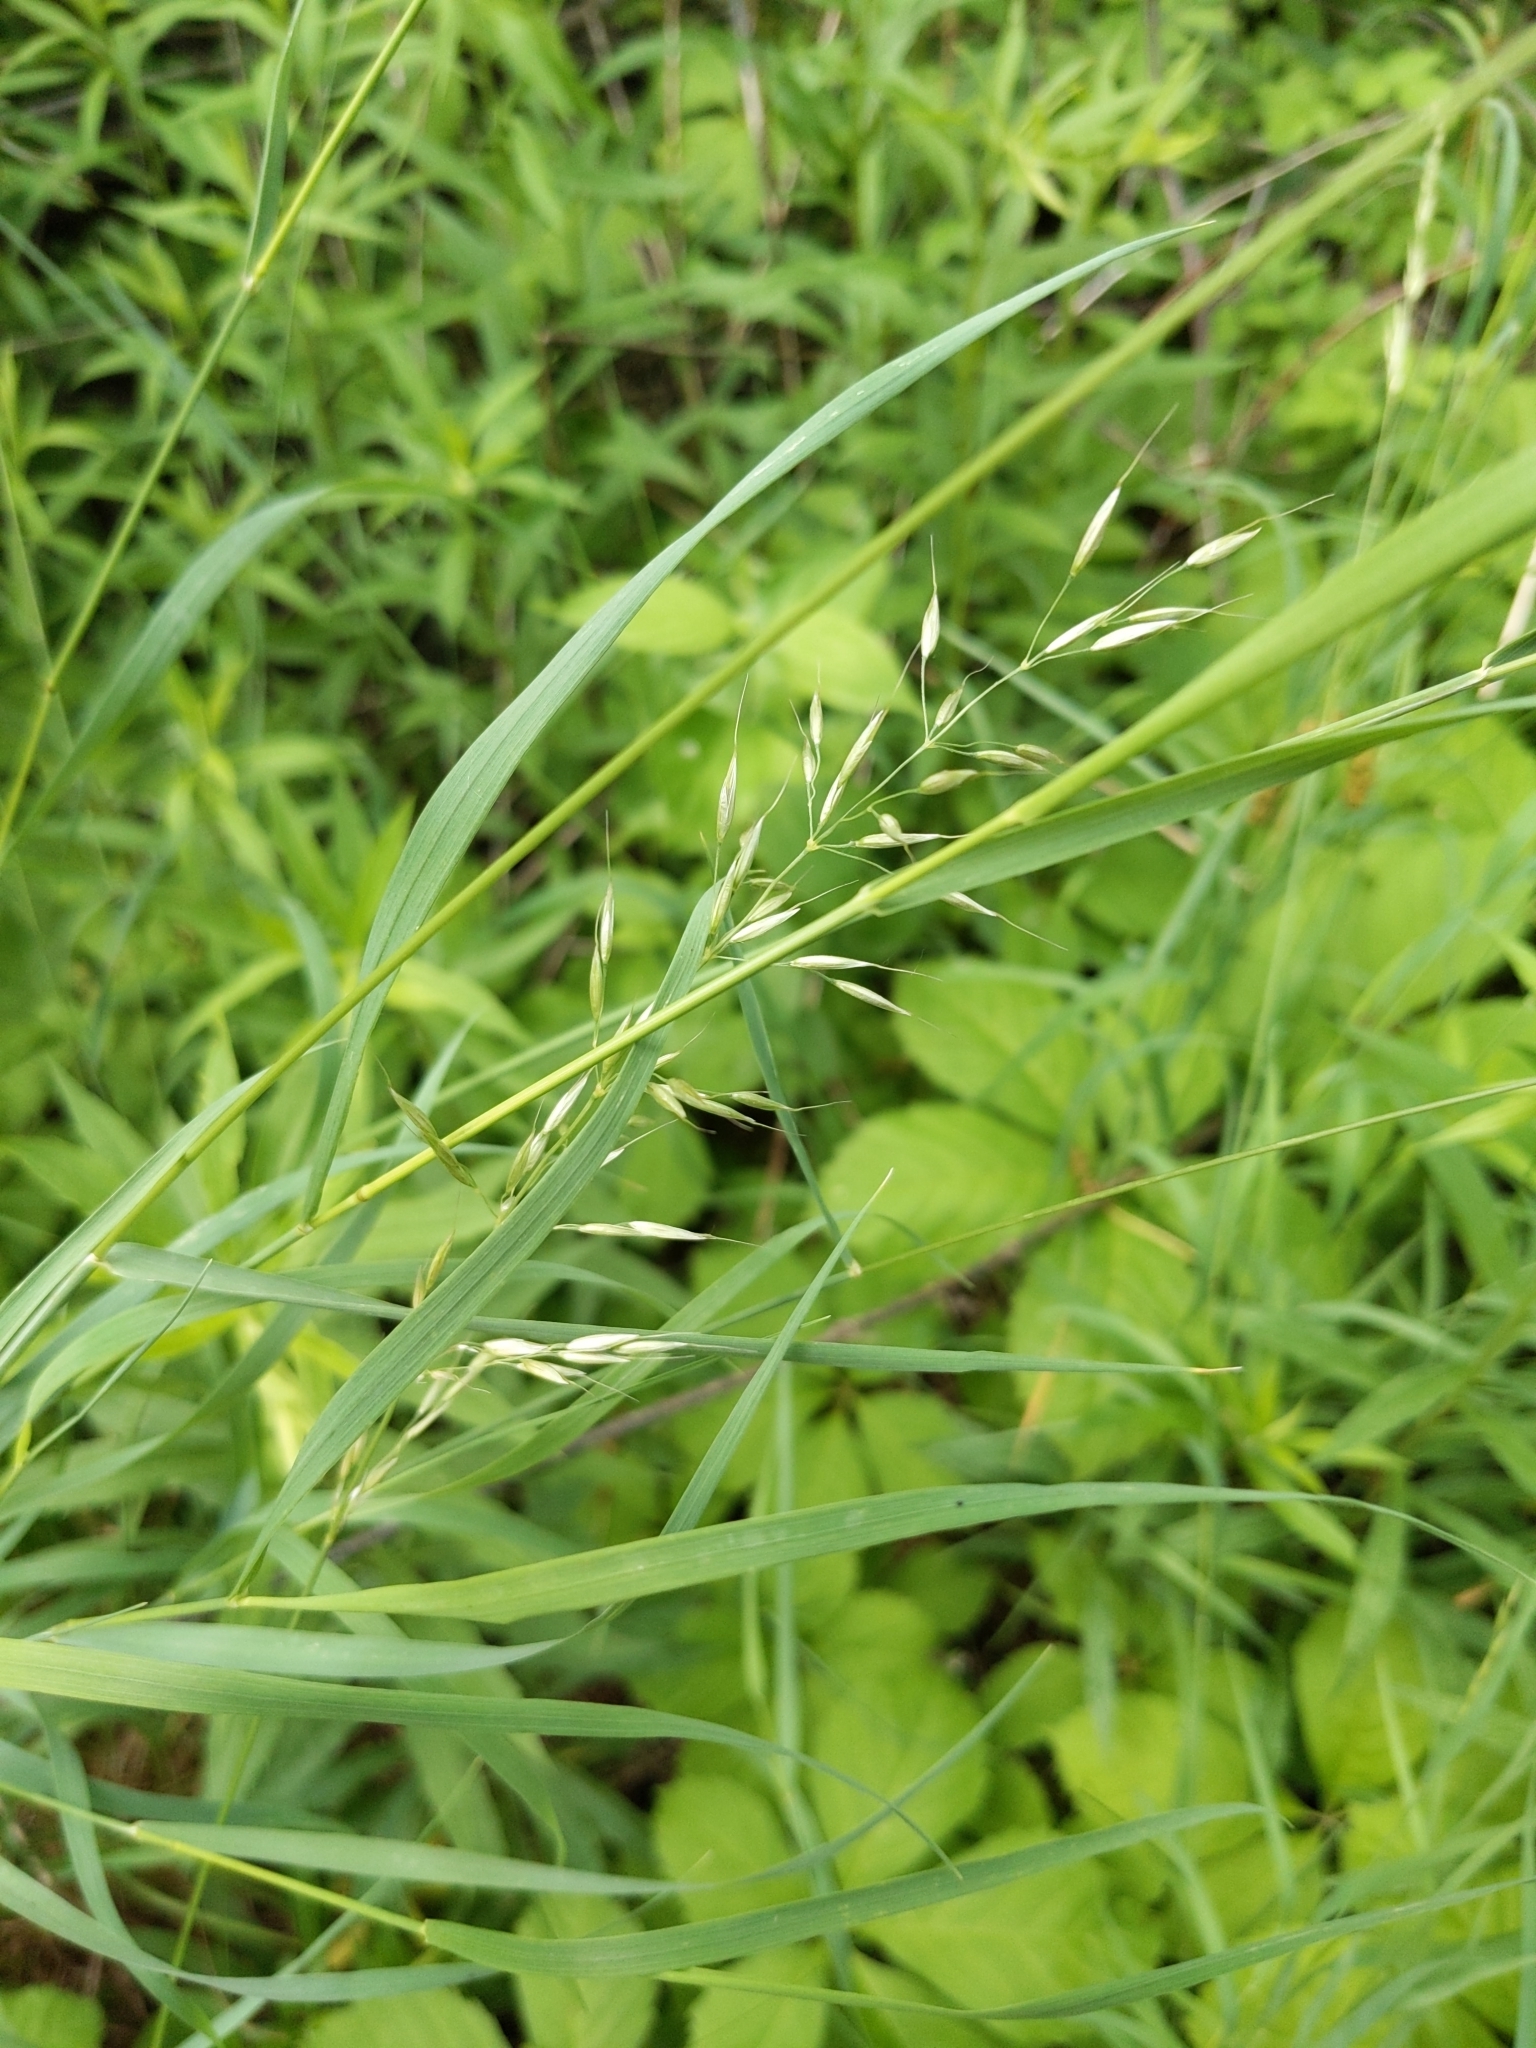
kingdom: Plantae
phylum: Tracheophyta
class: Liliopsida
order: Poales
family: Poaceae
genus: Arrhenatherum
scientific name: Arrhenatherum elatius
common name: Tall oatgrass
